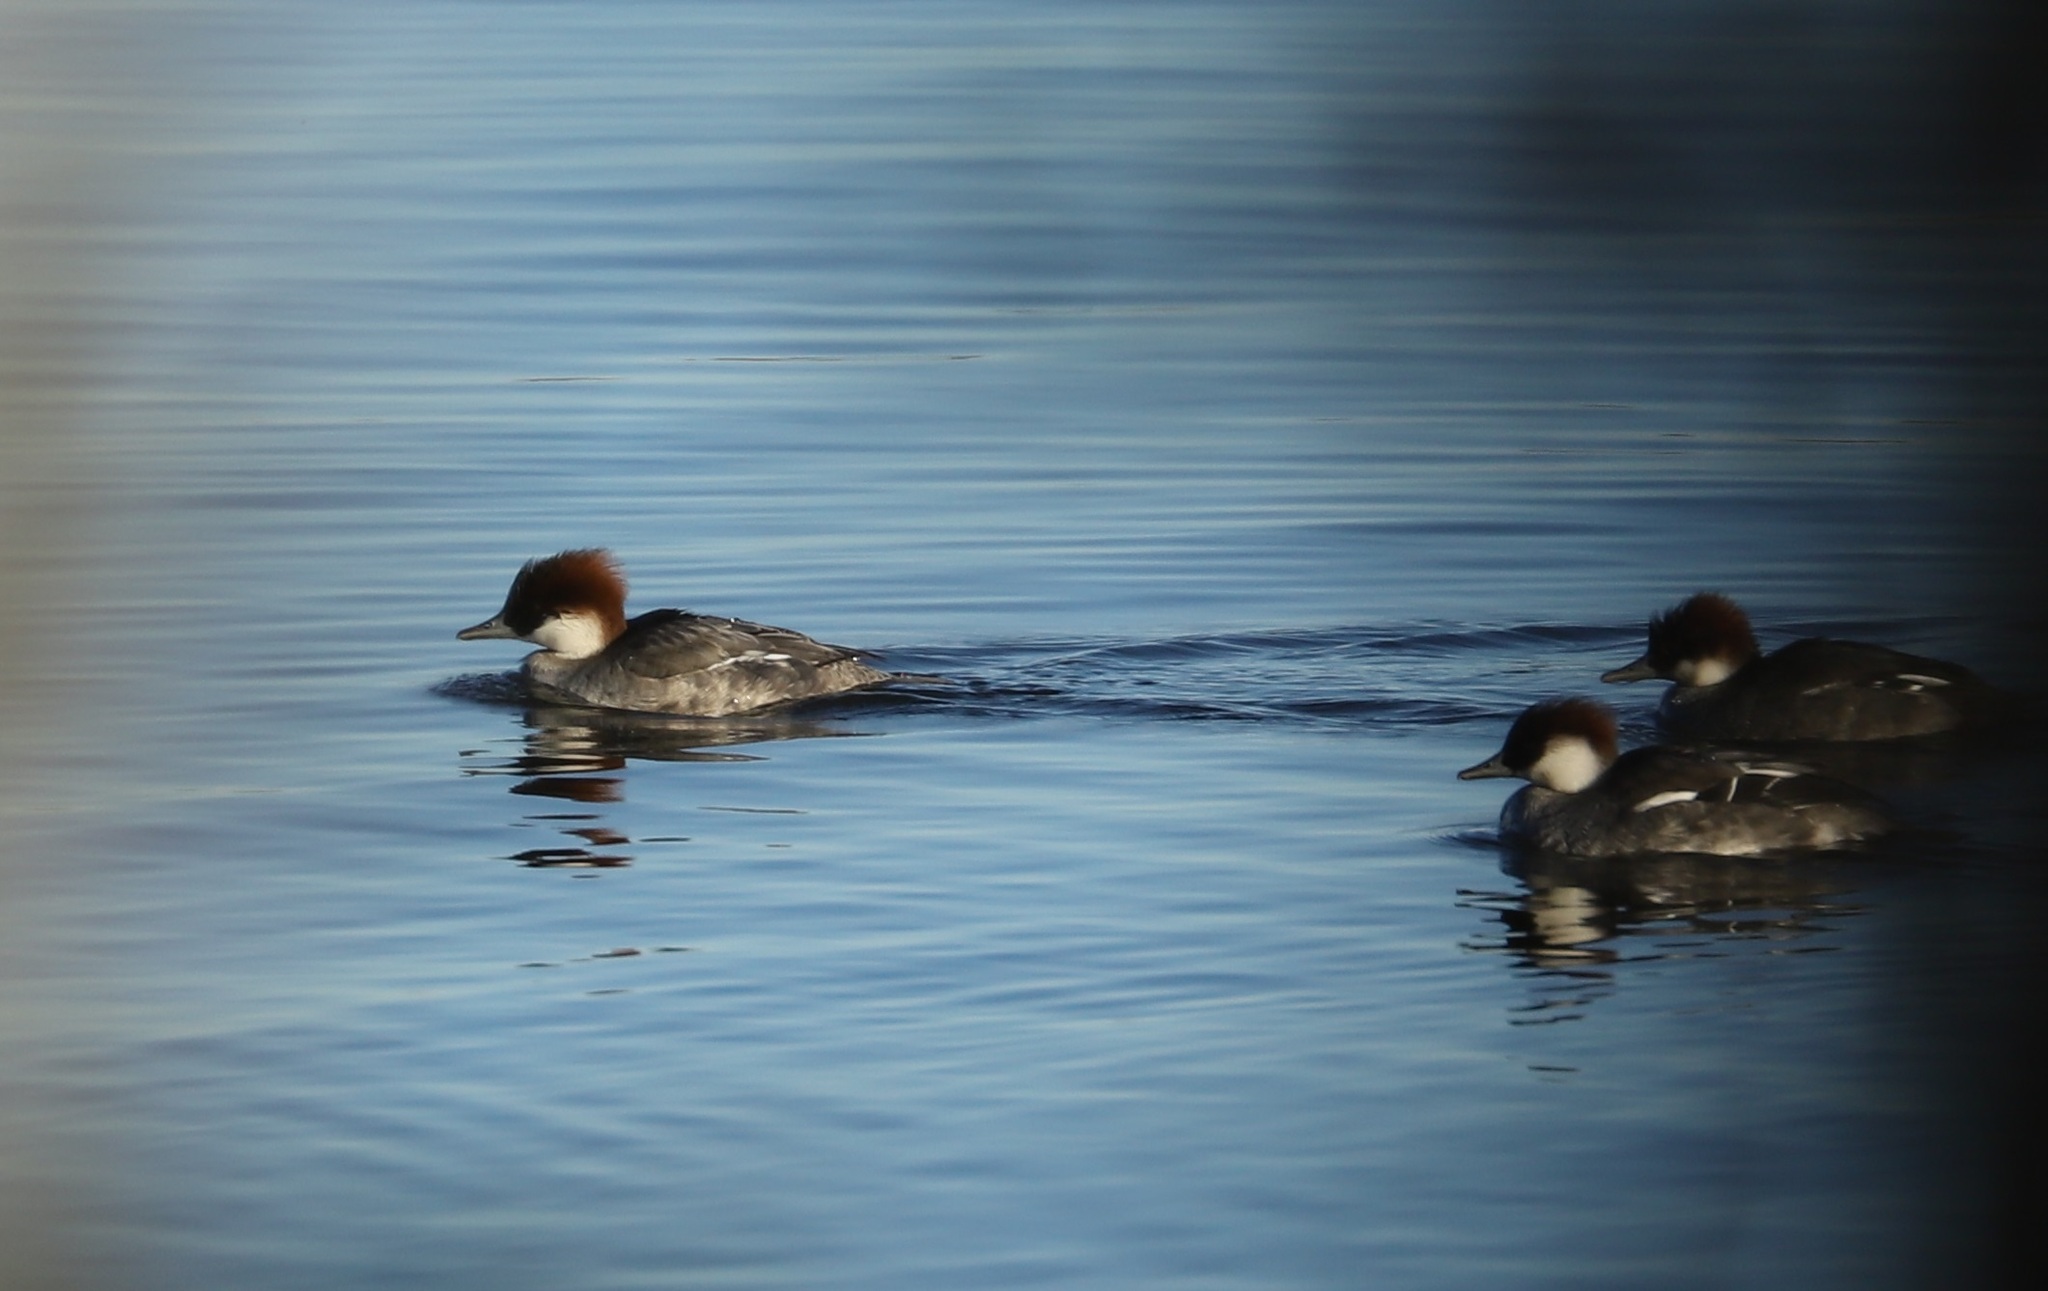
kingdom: Animalia
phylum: Chordata
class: Aves
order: Anseriformes
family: Anatidae
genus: Mergellus
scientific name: Mergellus albellus
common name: Smew
